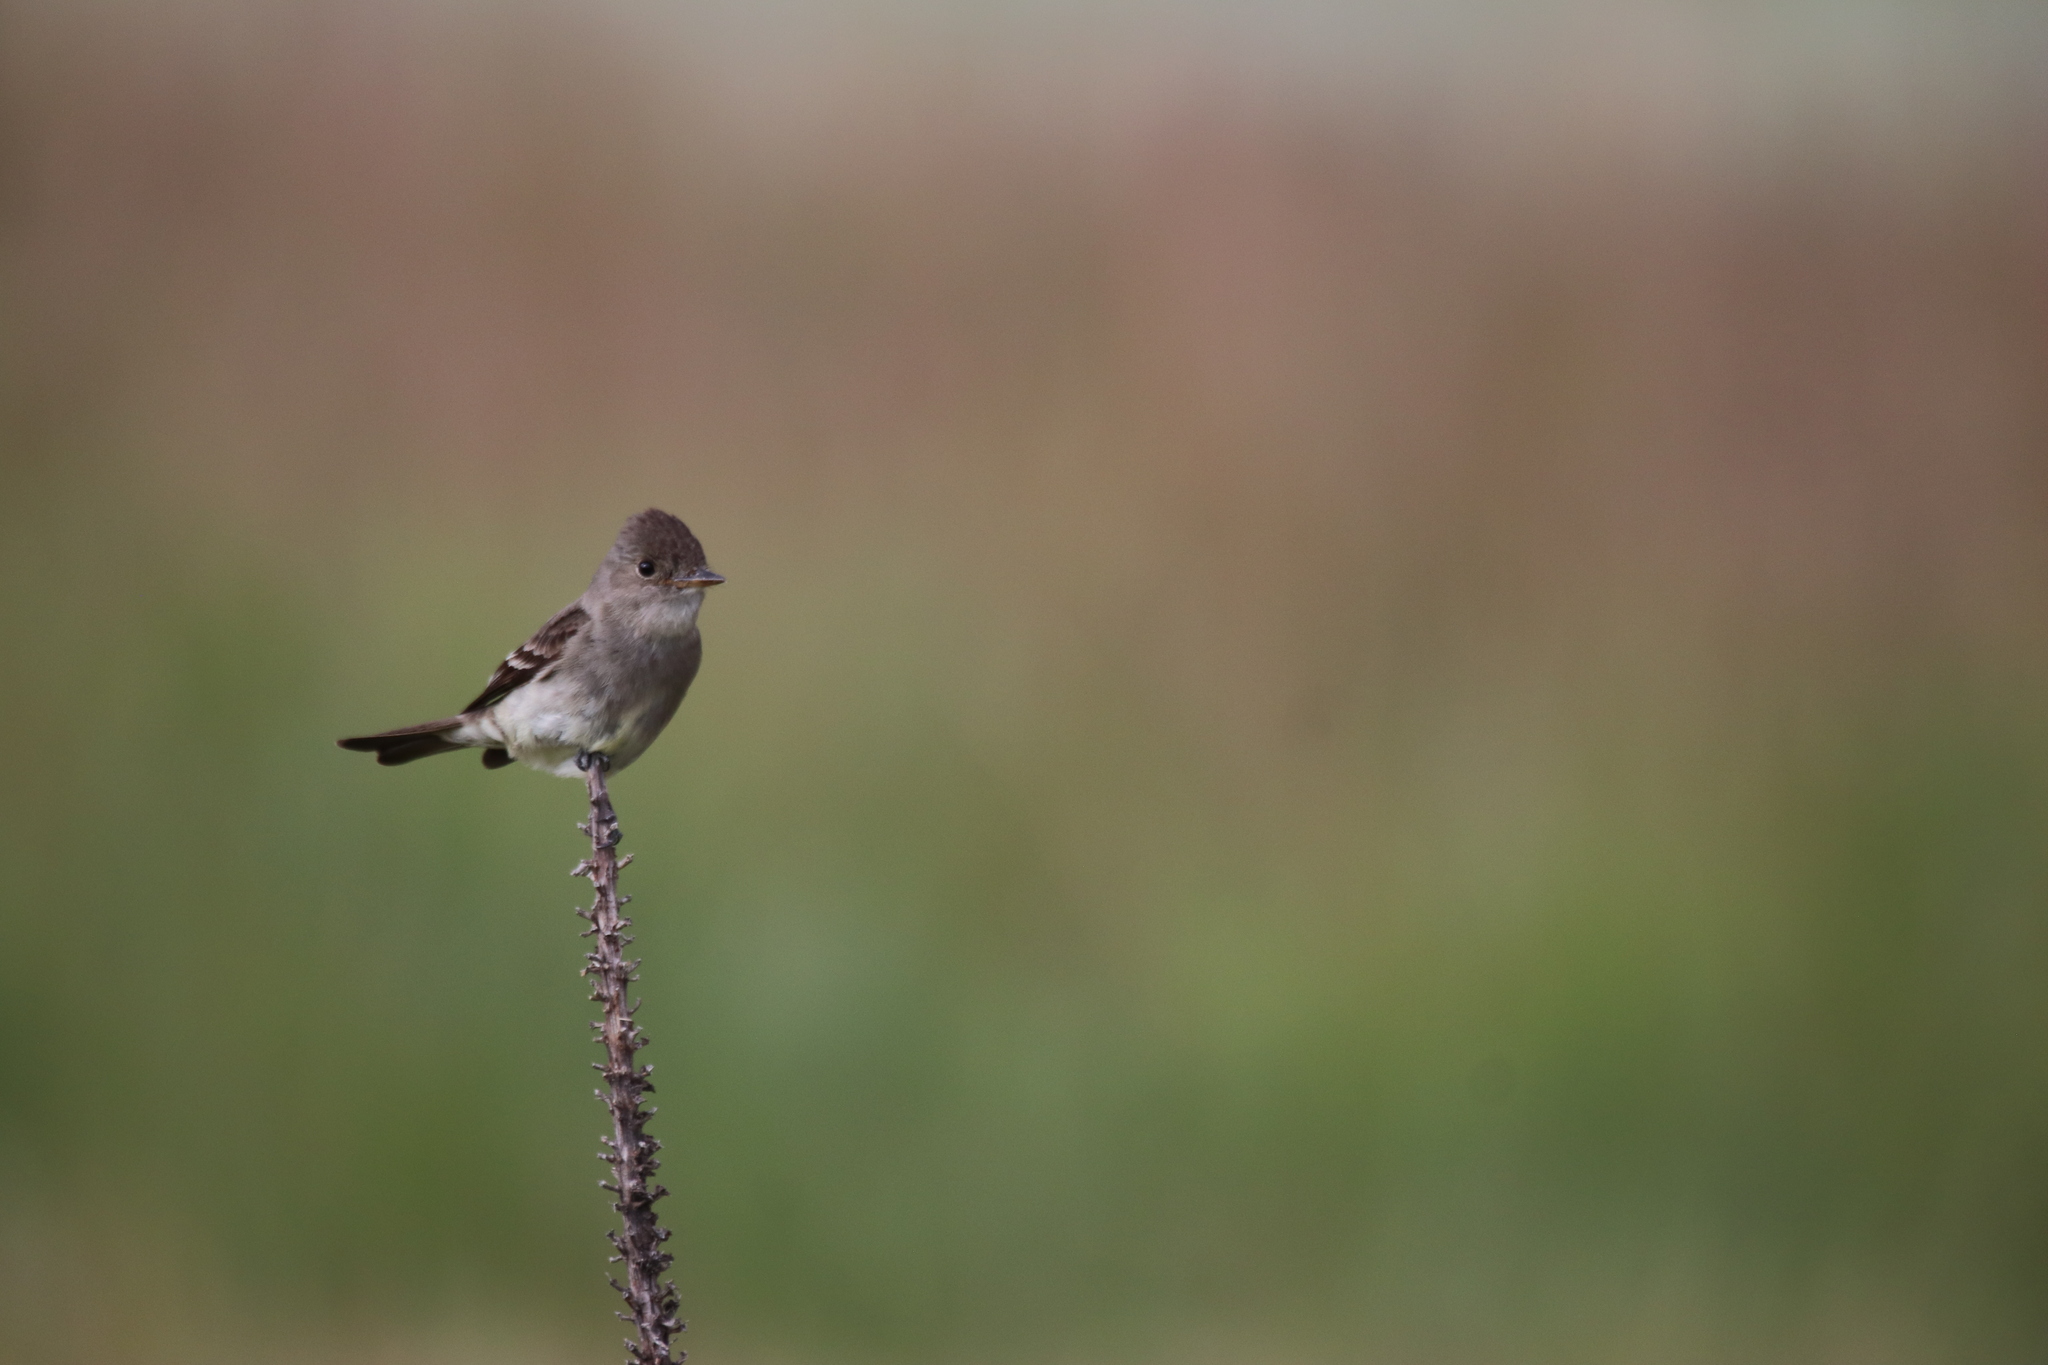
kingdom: Animalia
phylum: Chordata
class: Aves
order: Passeriformes
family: Tyrannidae
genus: Contopus
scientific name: Contopus sordidulus
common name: Western wood-pewee
